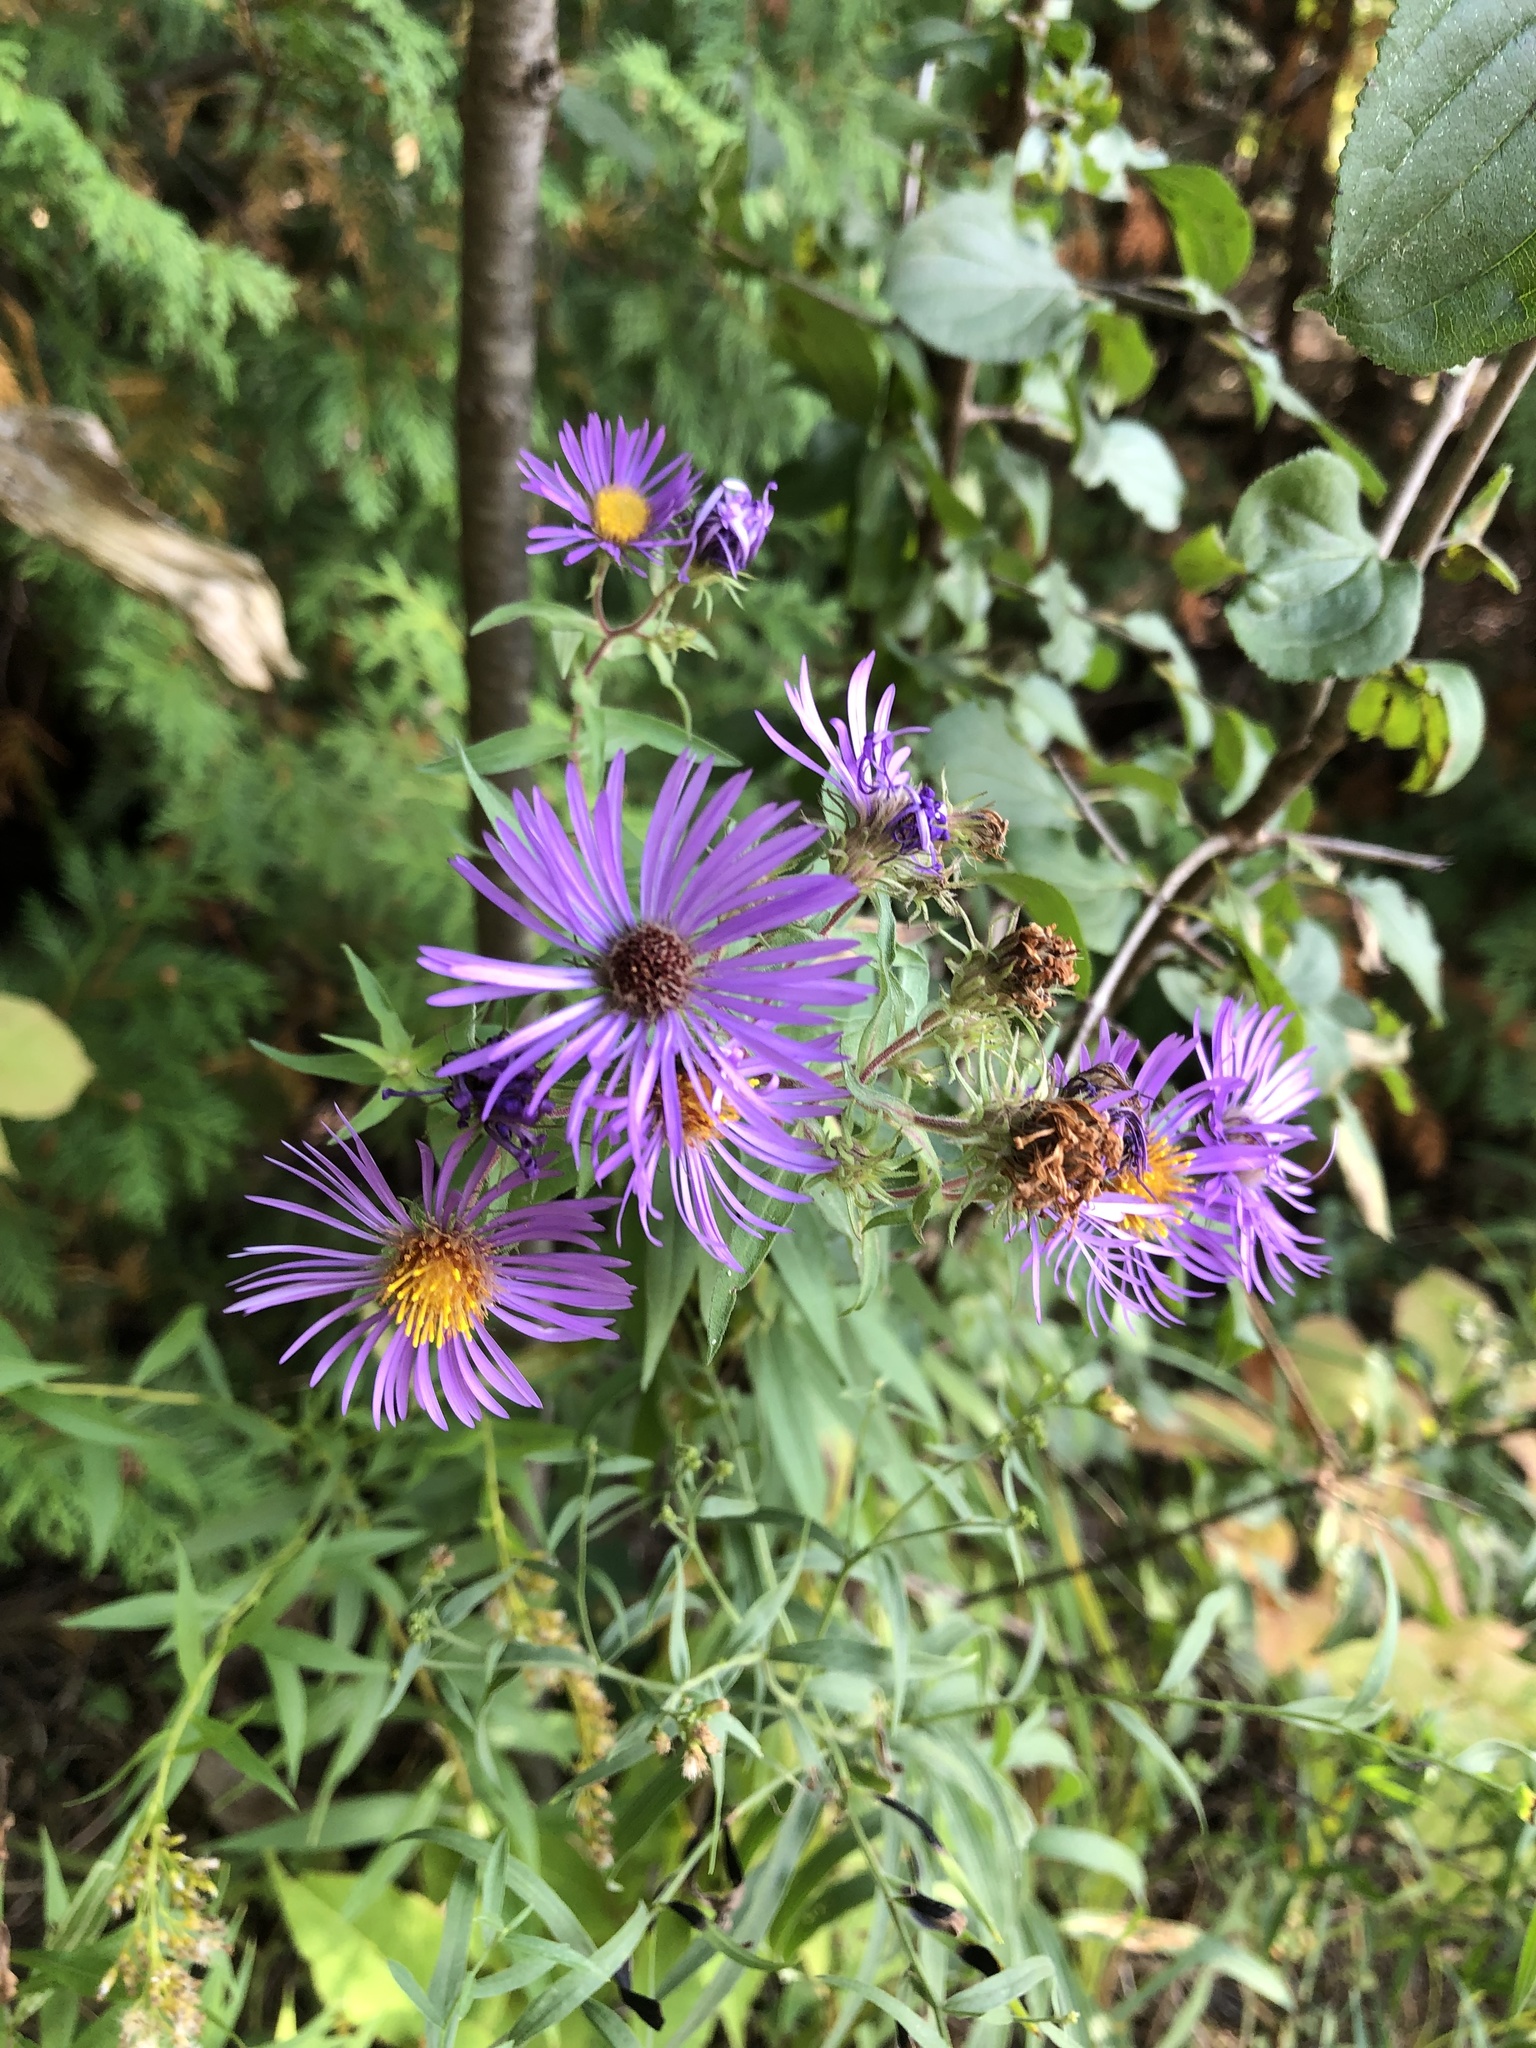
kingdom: Plantae
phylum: Tracheophyta
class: Magnoliopsida
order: Asterales
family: Asteraceae
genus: Symphyotrichum
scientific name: Symphyotrichum novae-angliae
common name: Michaelmas daisy
